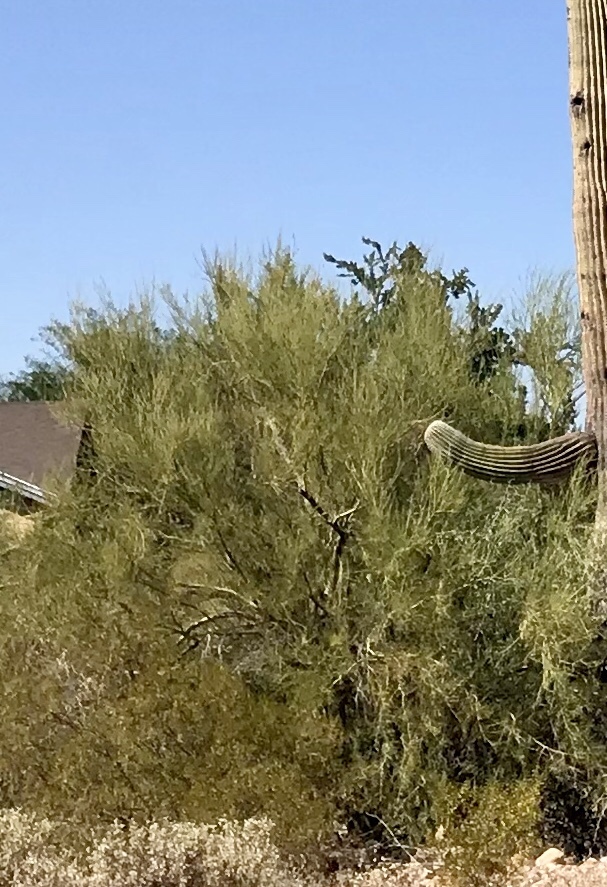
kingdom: Plantae
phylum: Tracheophyta
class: Magnoliopsida
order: Fabales
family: Fabaceae
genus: Parkinsonia
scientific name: Parkinsonia microphylla
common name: Yellow paloverde
